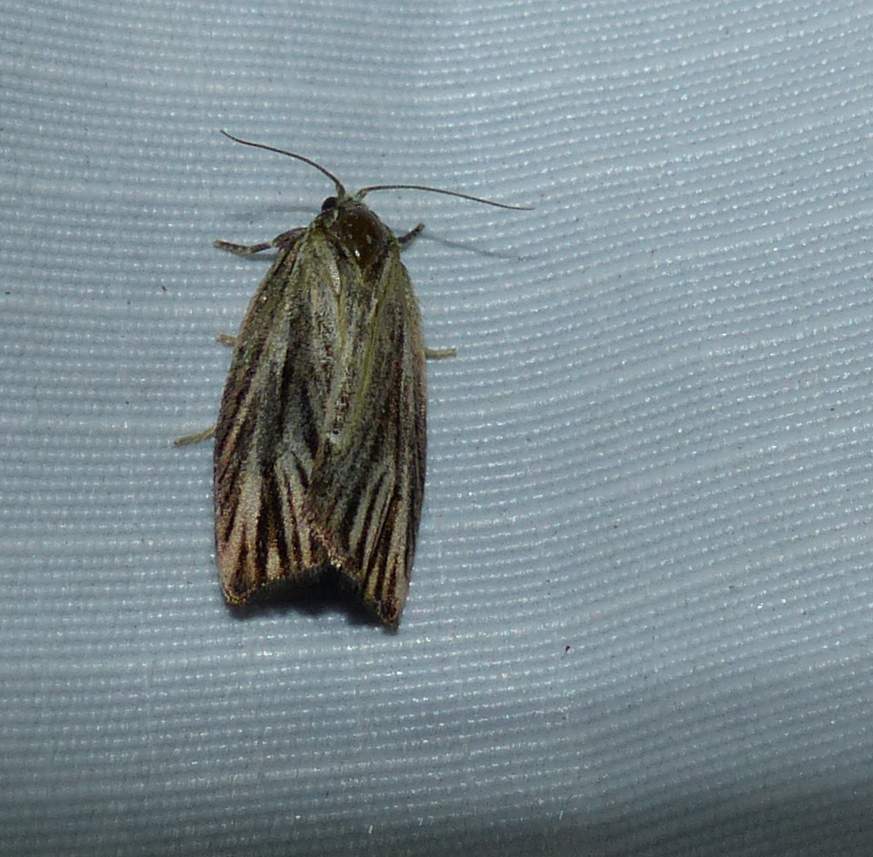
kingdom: Animalia
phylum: Arthropoda
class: Insecta
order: Lepidoptera
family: Tortricidae
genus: Archips
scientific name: Archips strianus
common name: Striated tortrix moth
